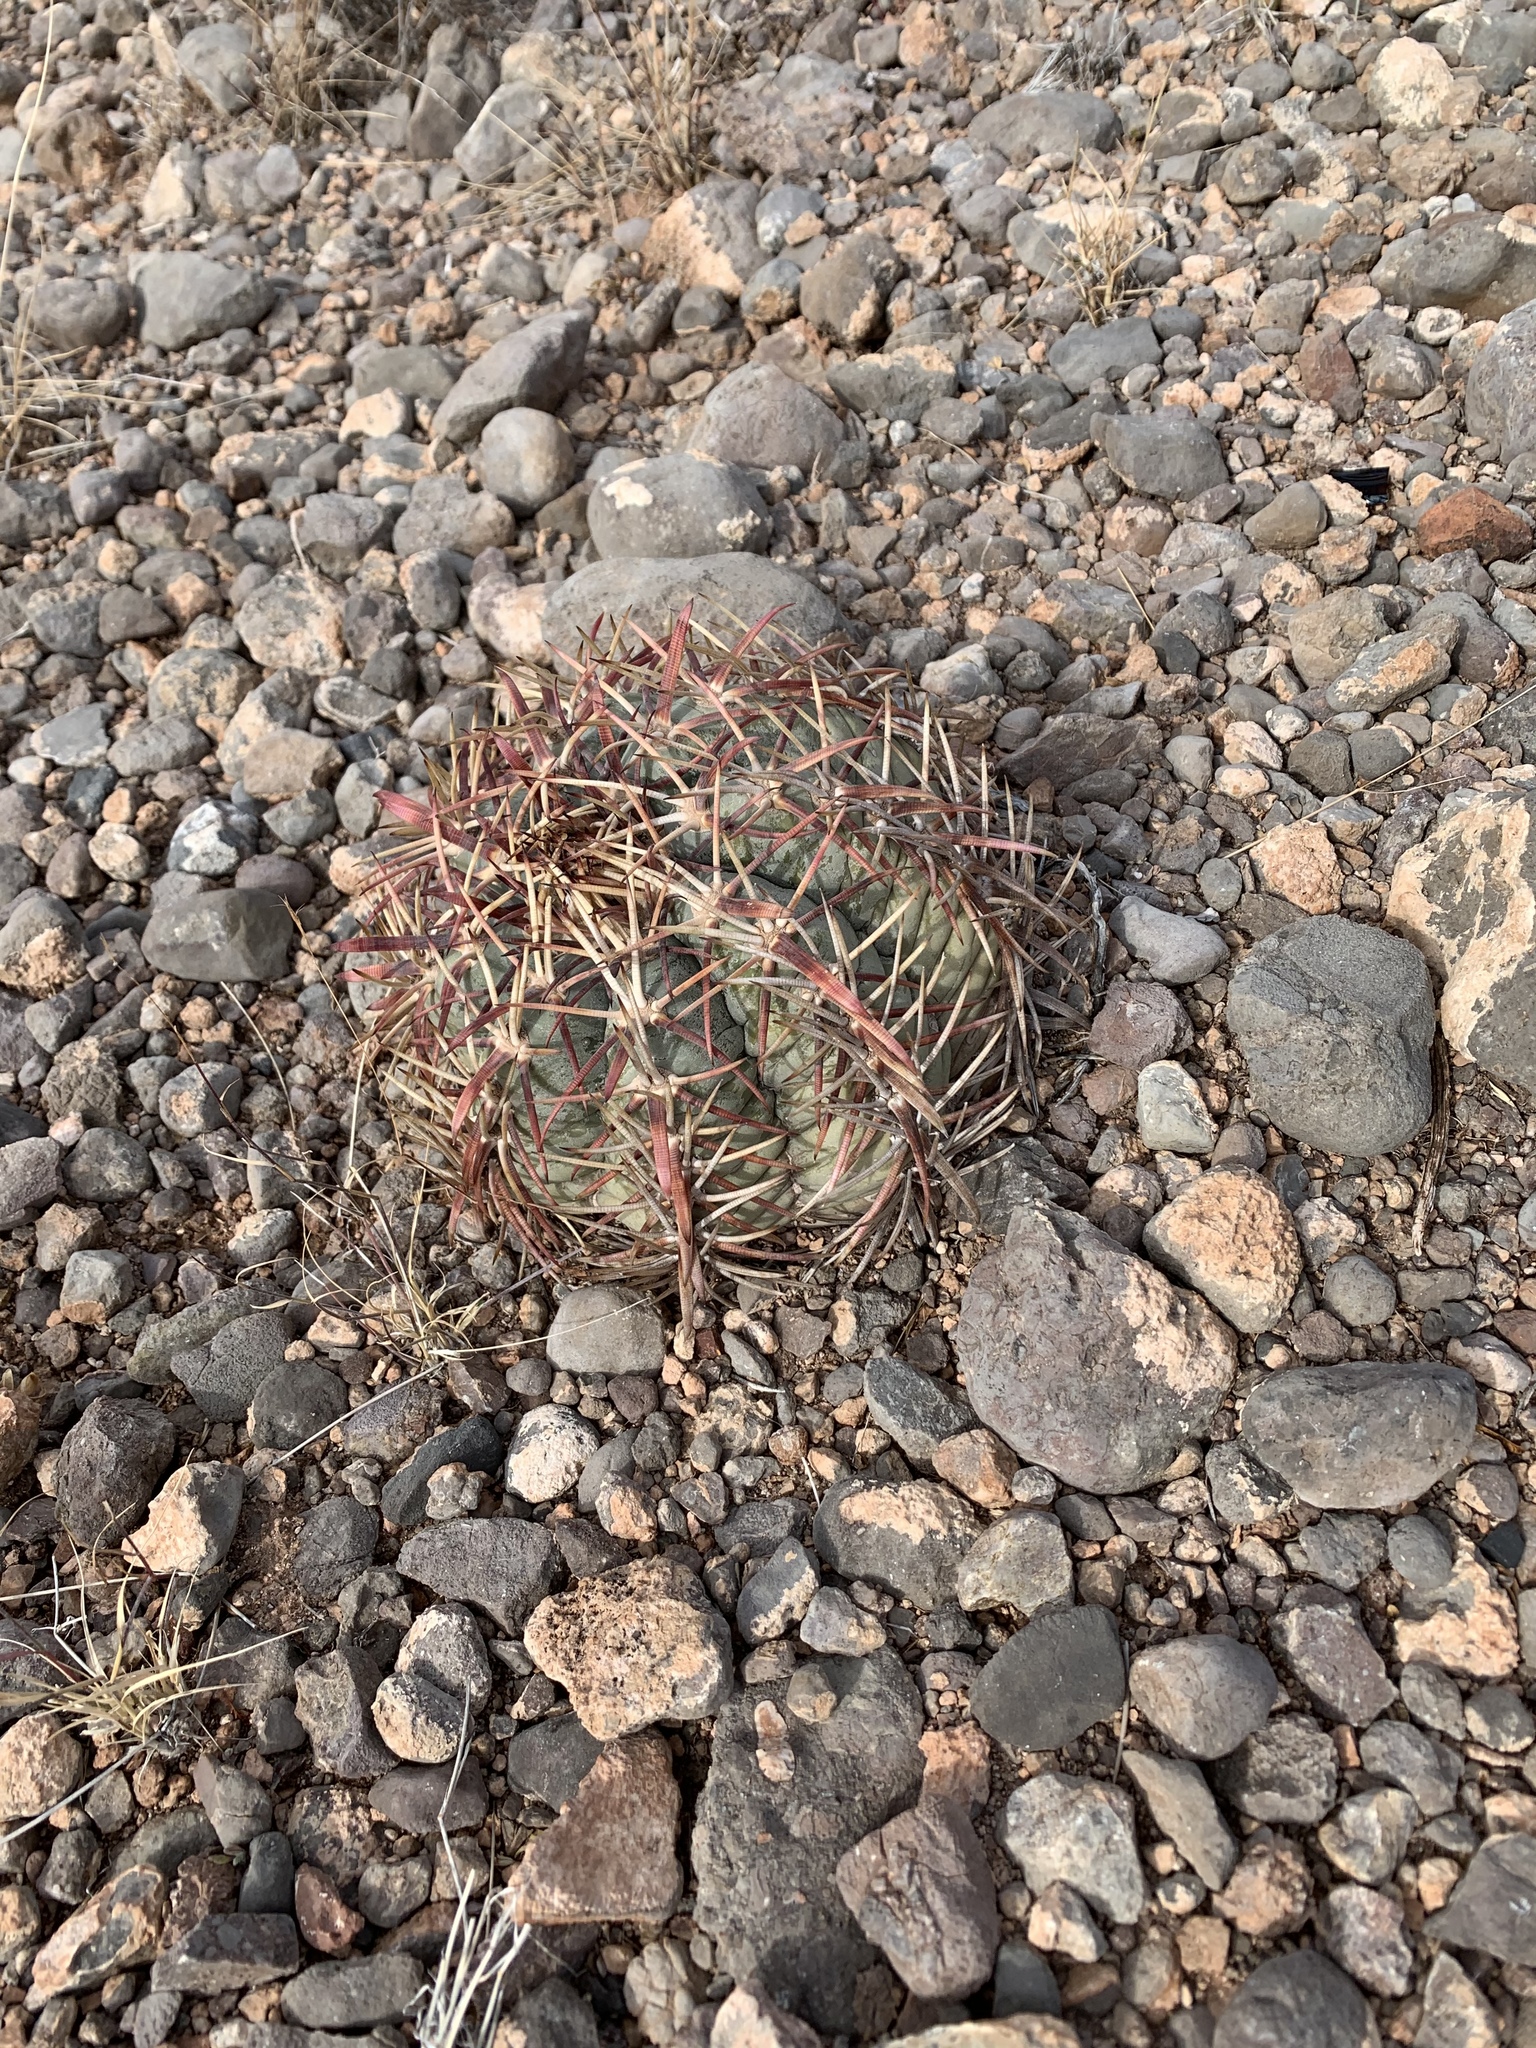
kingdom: Plantae
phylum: Tracheophyta
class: Magnoliopsida
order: Caryophyllales
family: Cactaceae
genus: Echinocactus
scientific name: Echinocactus horizonthalonius
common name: Devilshead
